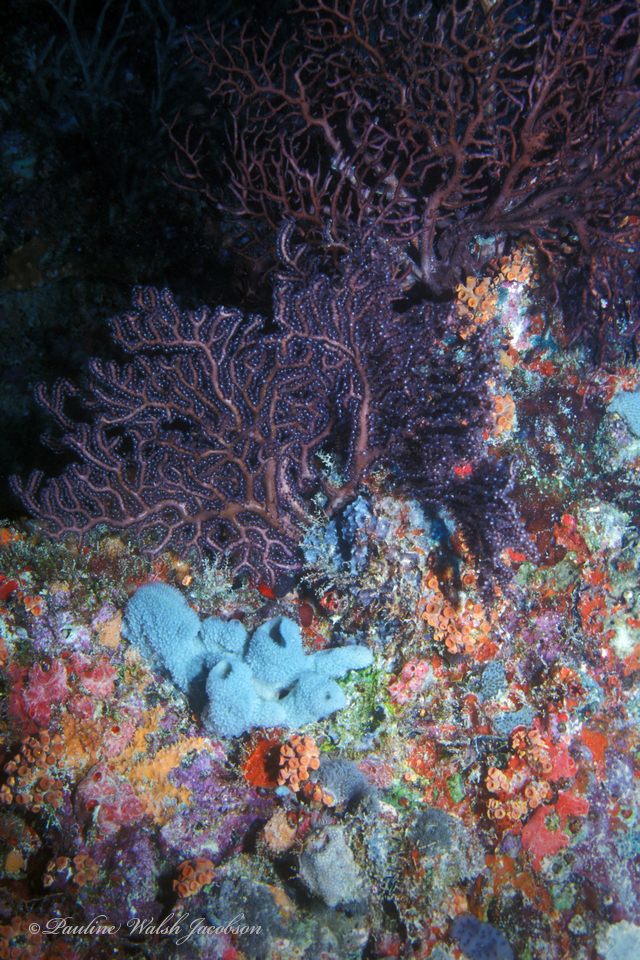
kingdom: Animalia
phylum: Cnidaria
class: Anthozoa
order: Malacalcyonacea
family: Melithaeidae
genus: Iciligorgia
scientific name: Iciligorgia schrammi
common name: Black sea fan
